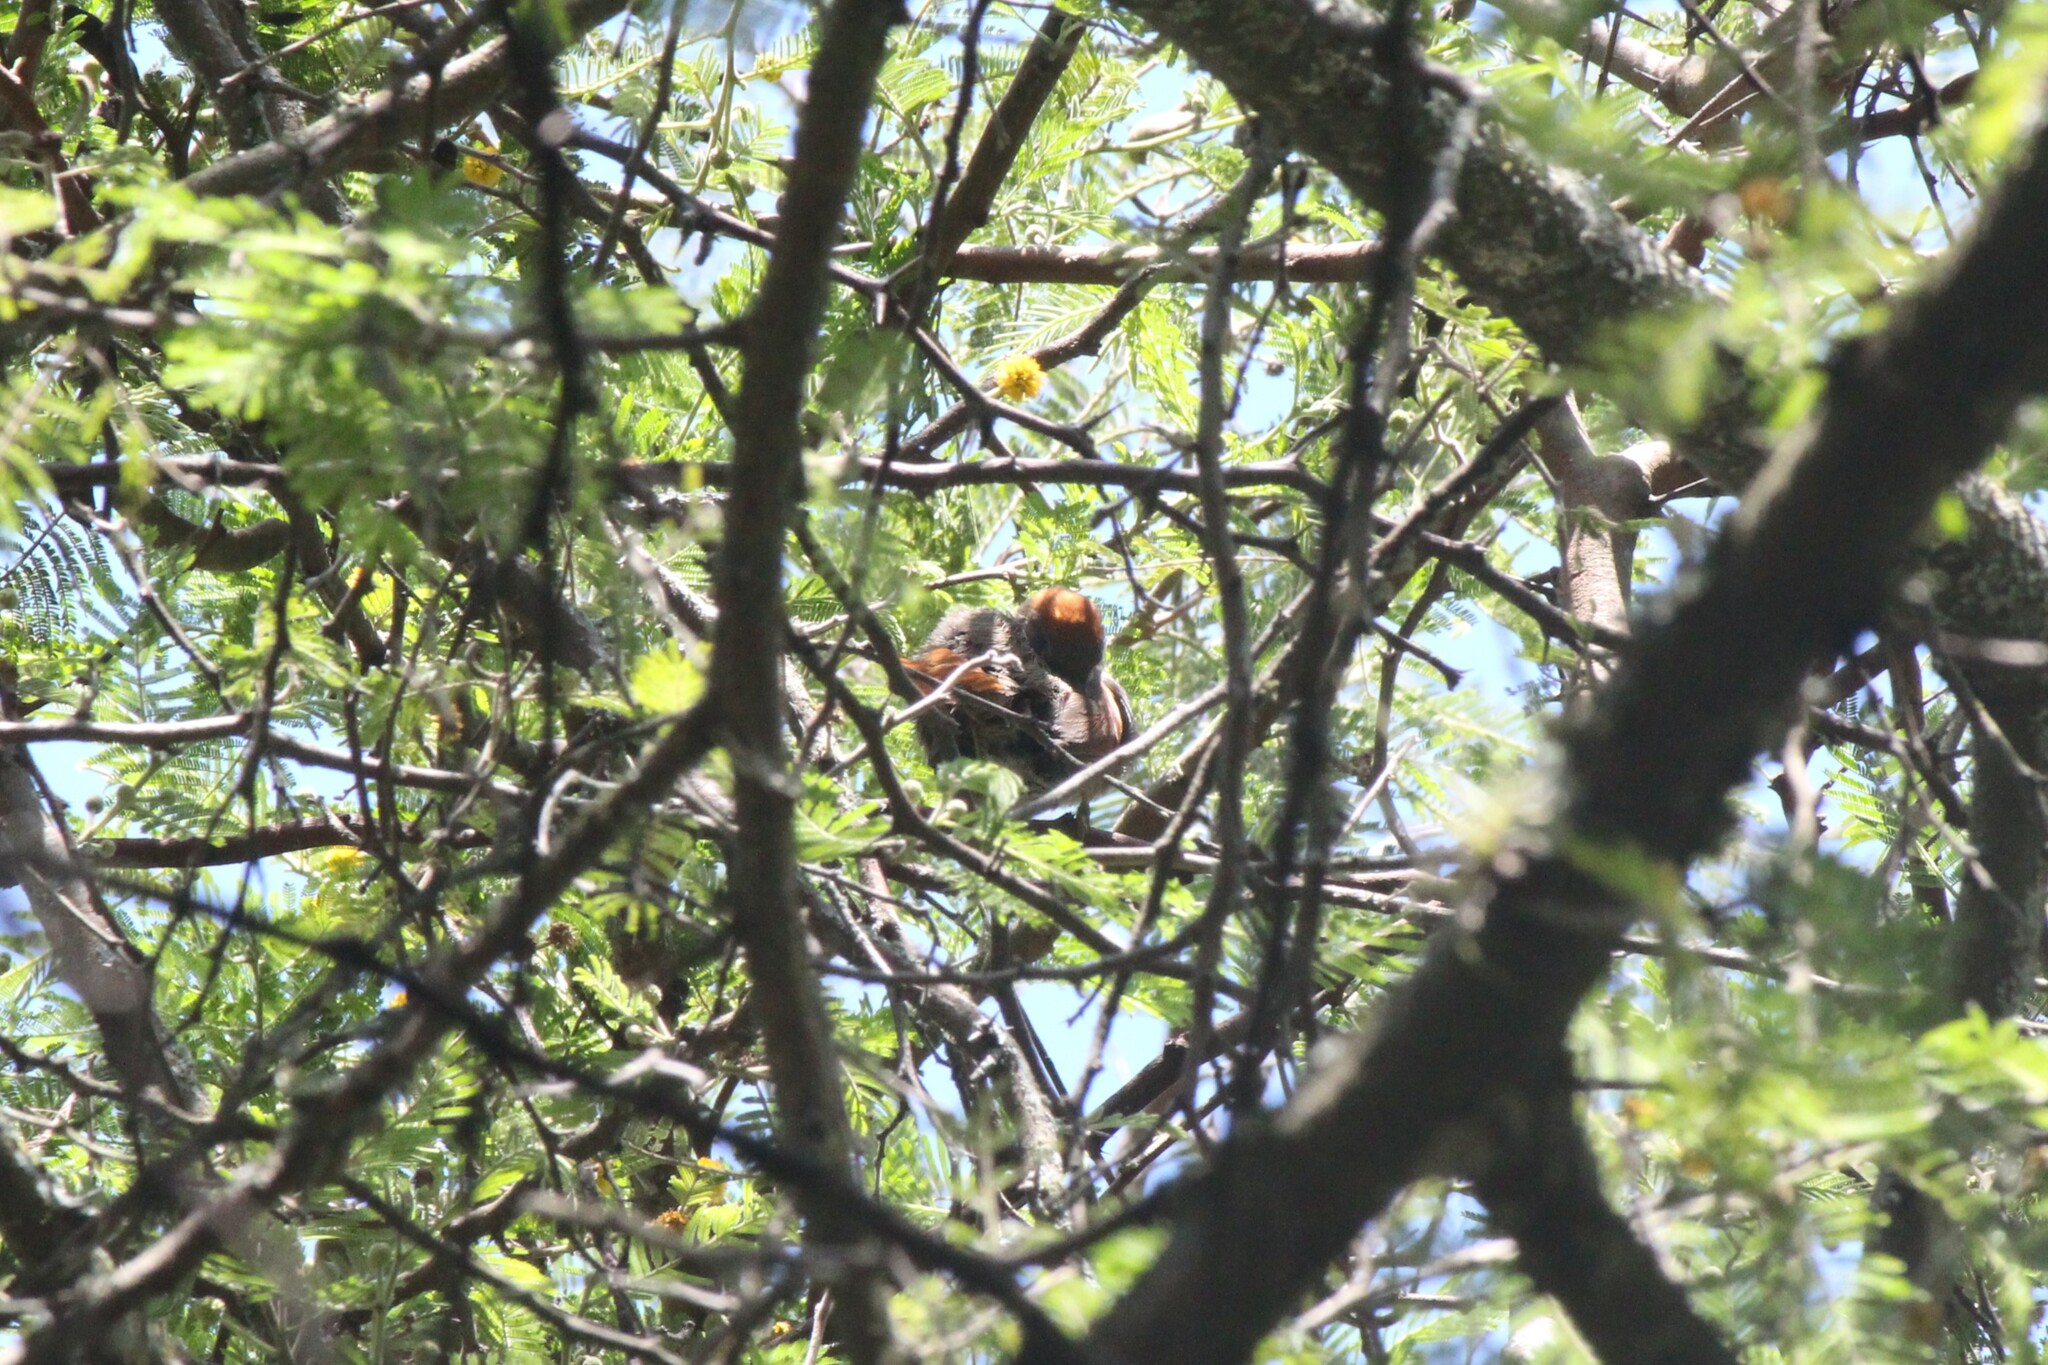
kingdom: Animalia
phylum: Chordata
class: Aves
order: Passeriformes
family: Furnariidae
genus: Synallaxis
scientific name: Synallaxis azarae
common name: Azara's spinetail
